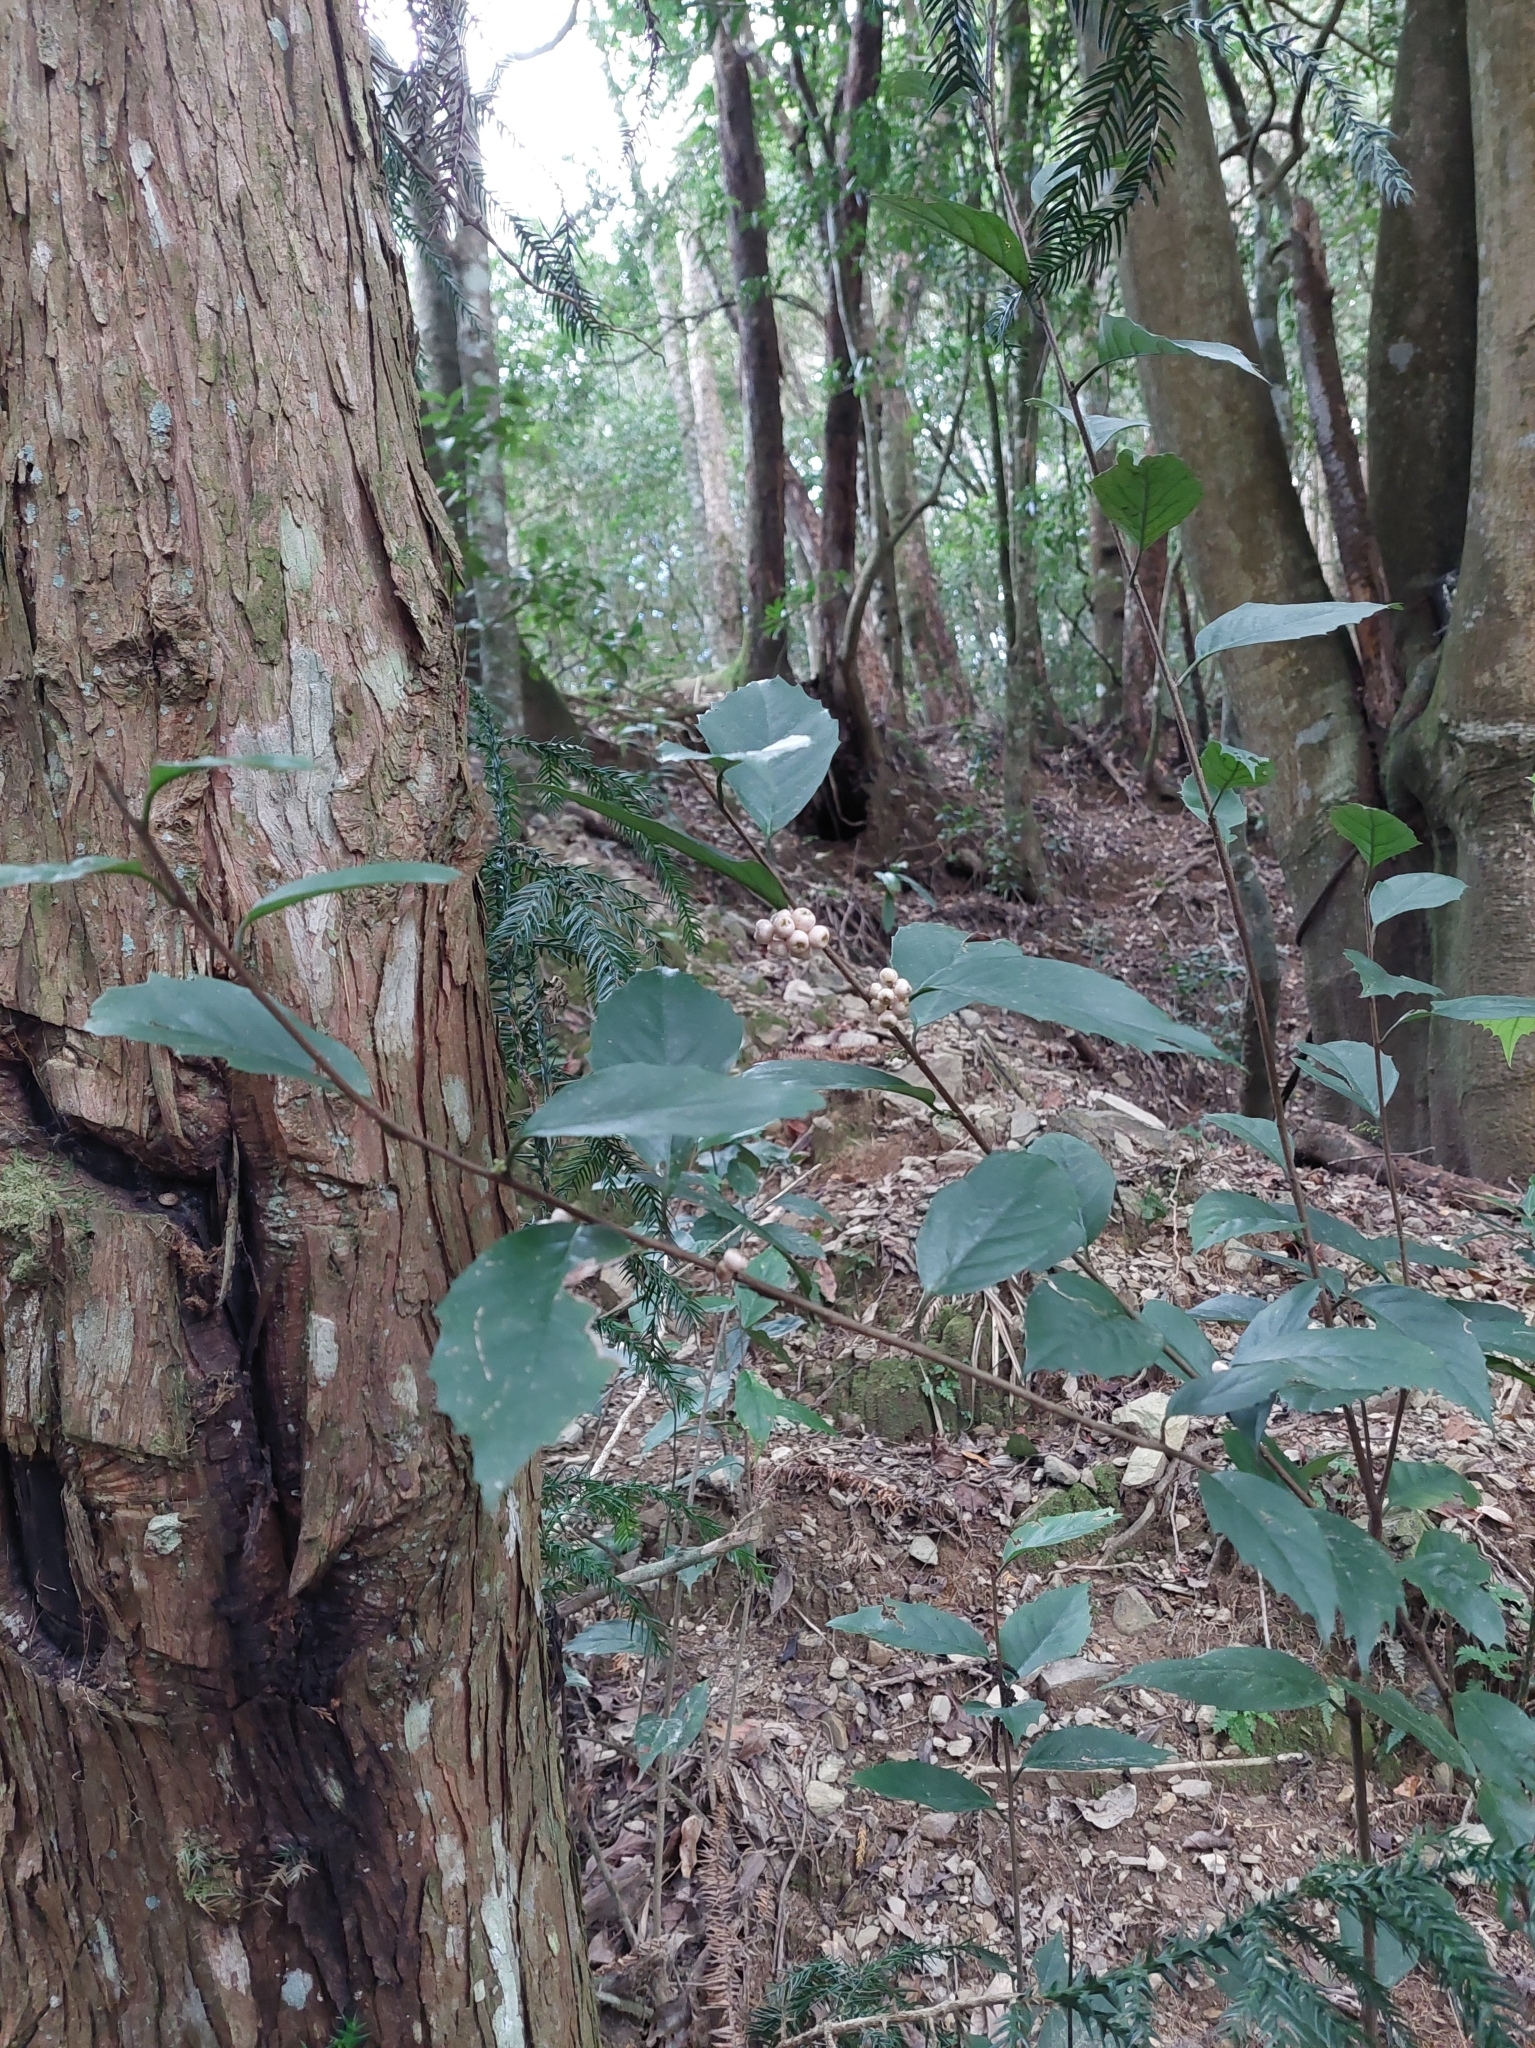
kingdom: Plantae
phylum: Tracheophyta
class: Magnoliopsida
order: Ericales
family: Primulaceae
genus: Maesa
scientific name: Maesa japonica
